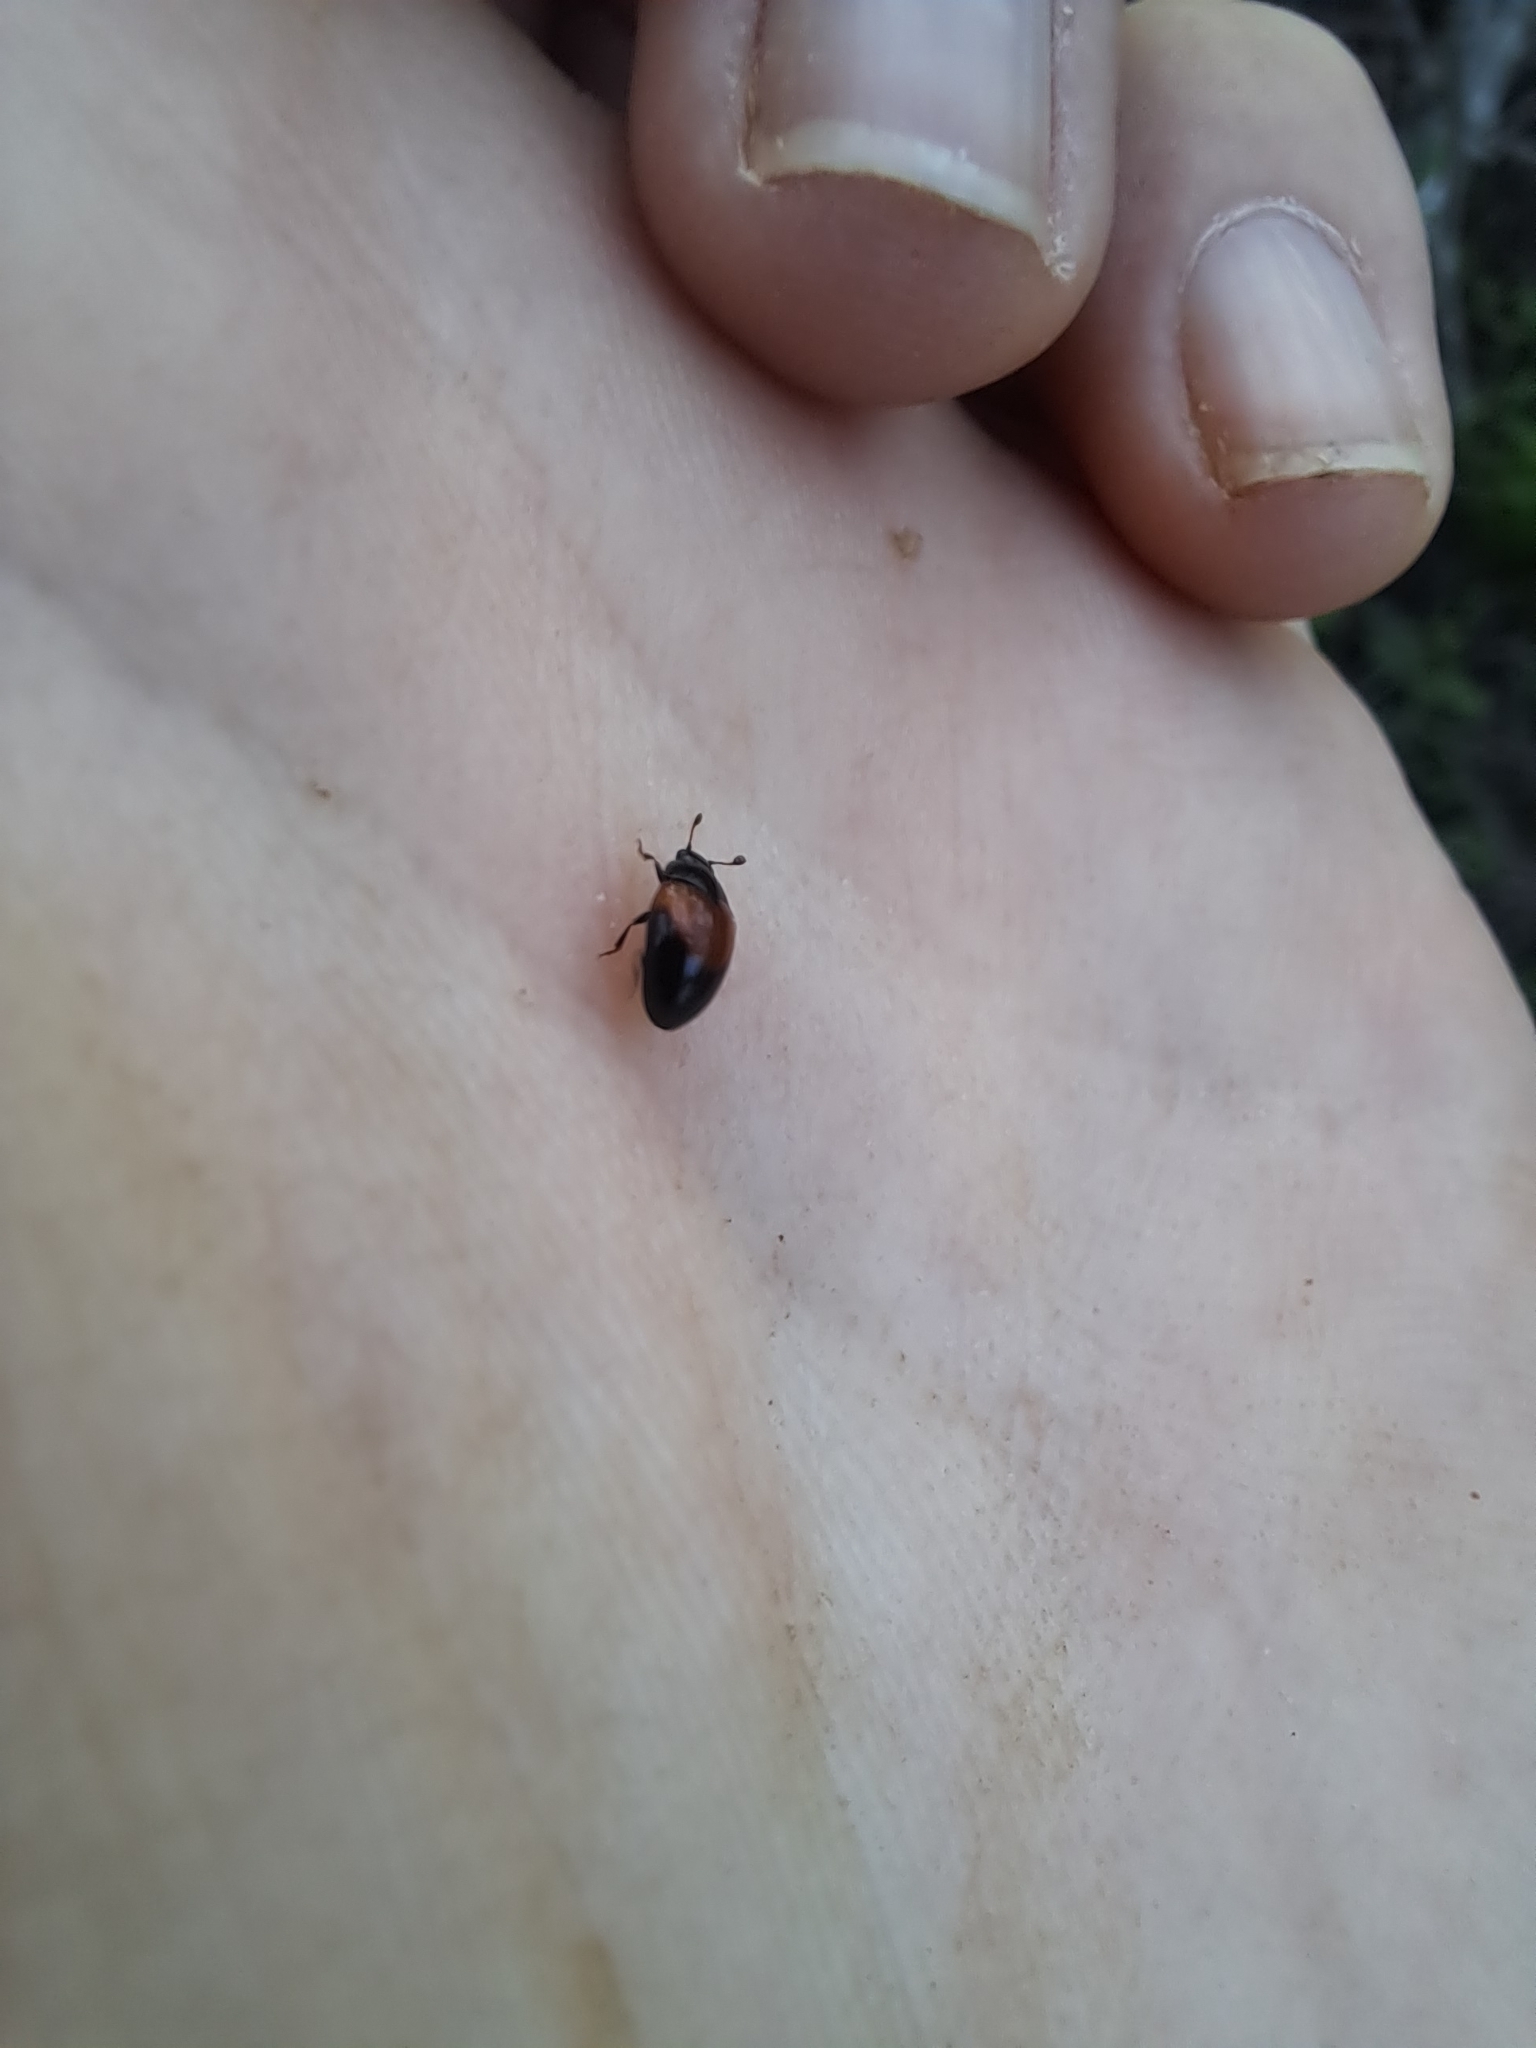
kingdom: Animalia
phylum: Arthropoda
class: Insecta
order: Coleoptera
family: Erotylidae
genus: Tritoma
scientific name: Tritoma pulchra
